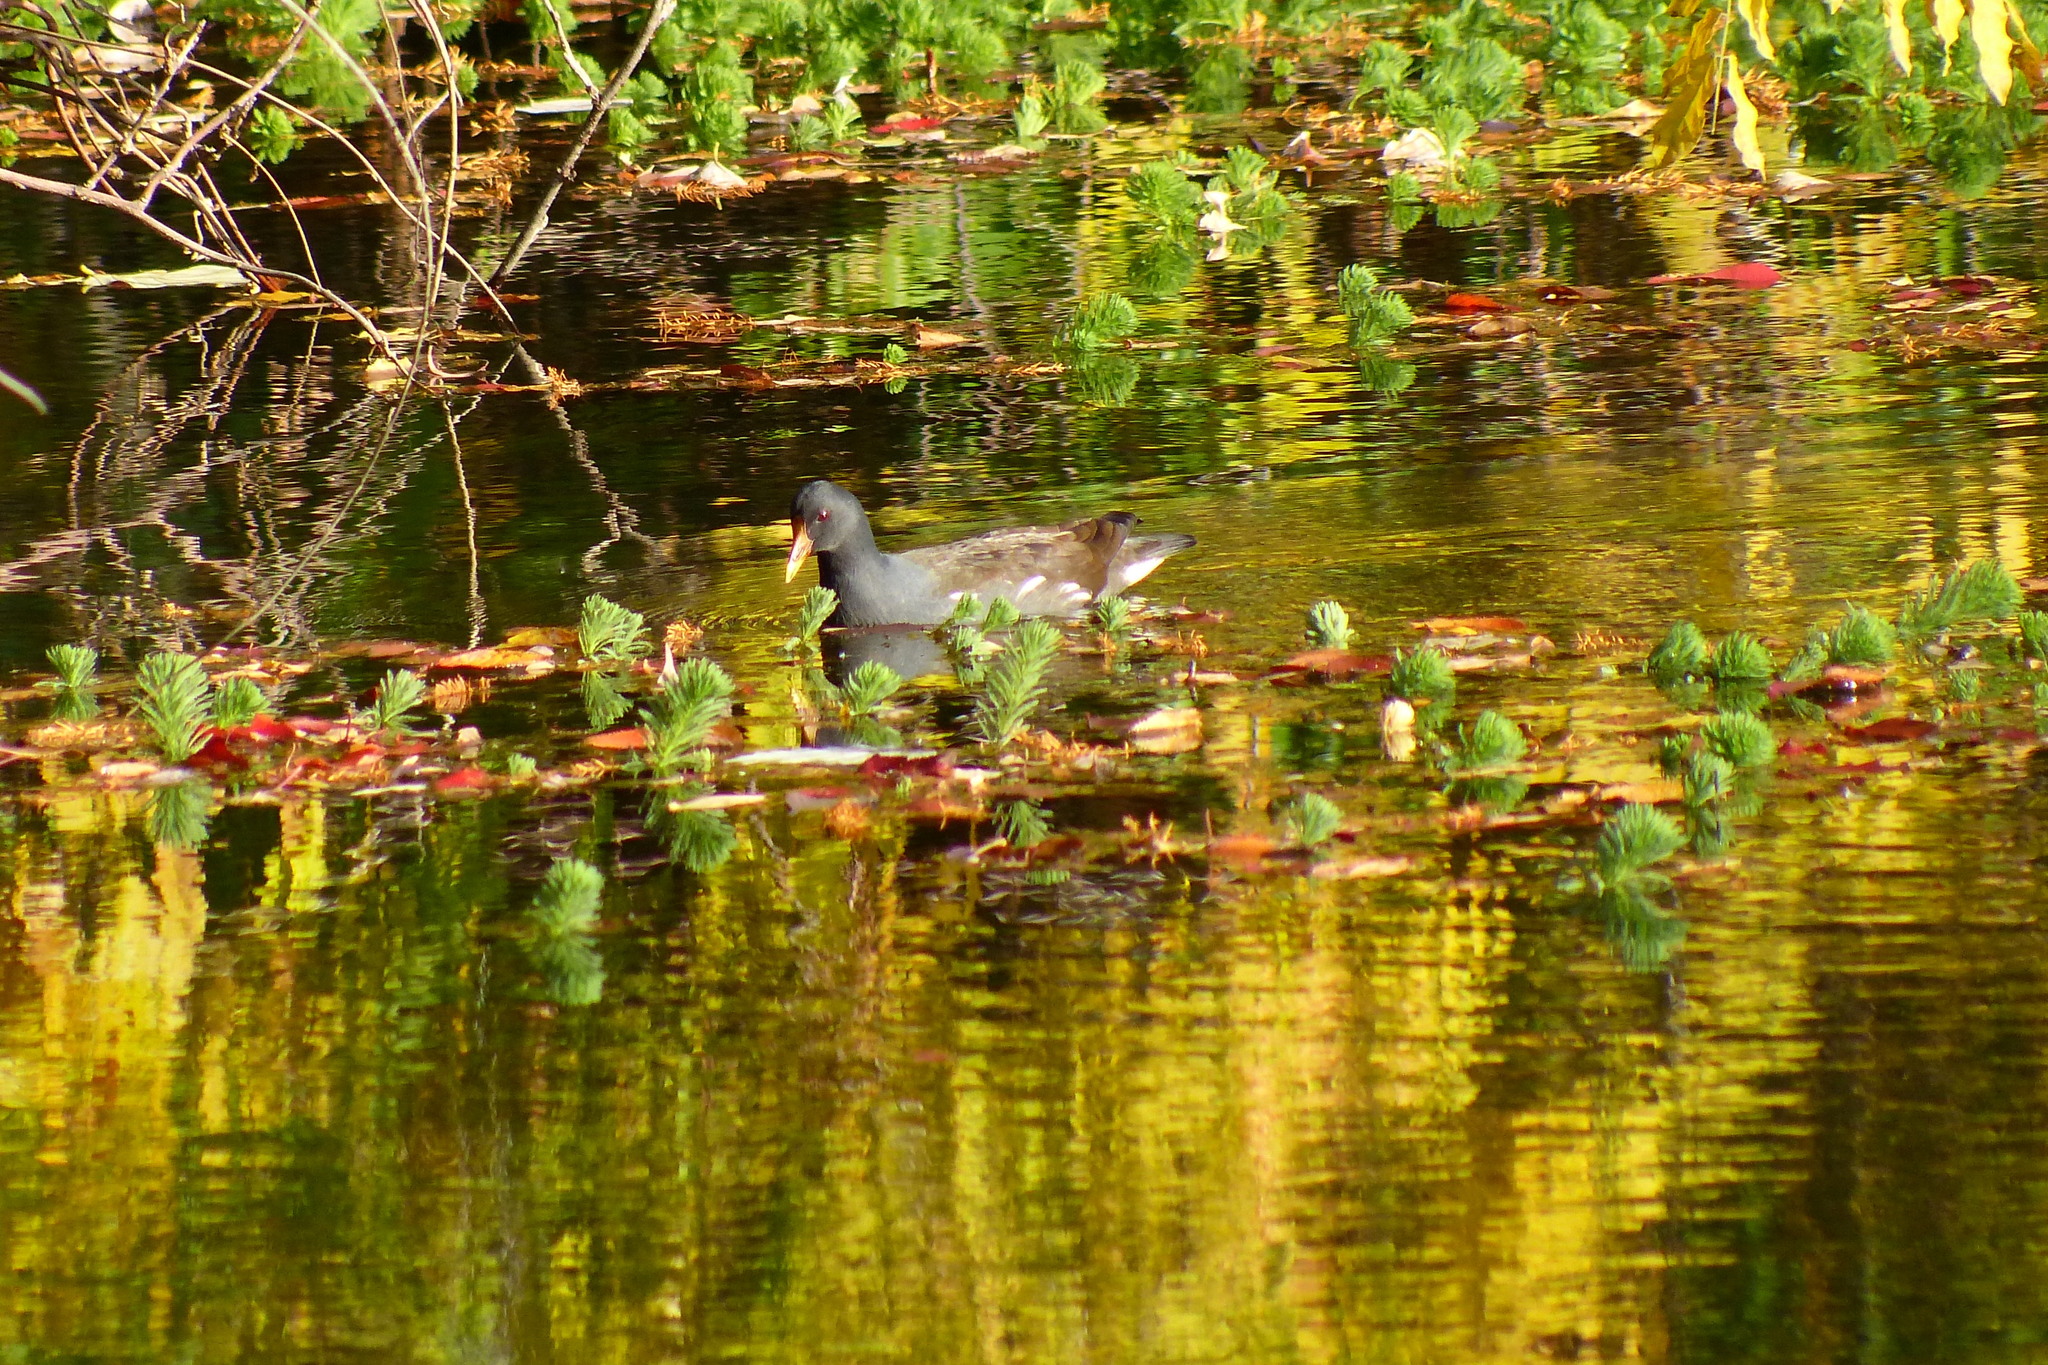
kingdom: Animalia
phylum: Chordata
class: Aves
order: Gruiformes
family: Rallidae
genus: Gallinula
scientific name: Gallinula chloropus
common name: Common moorhen
